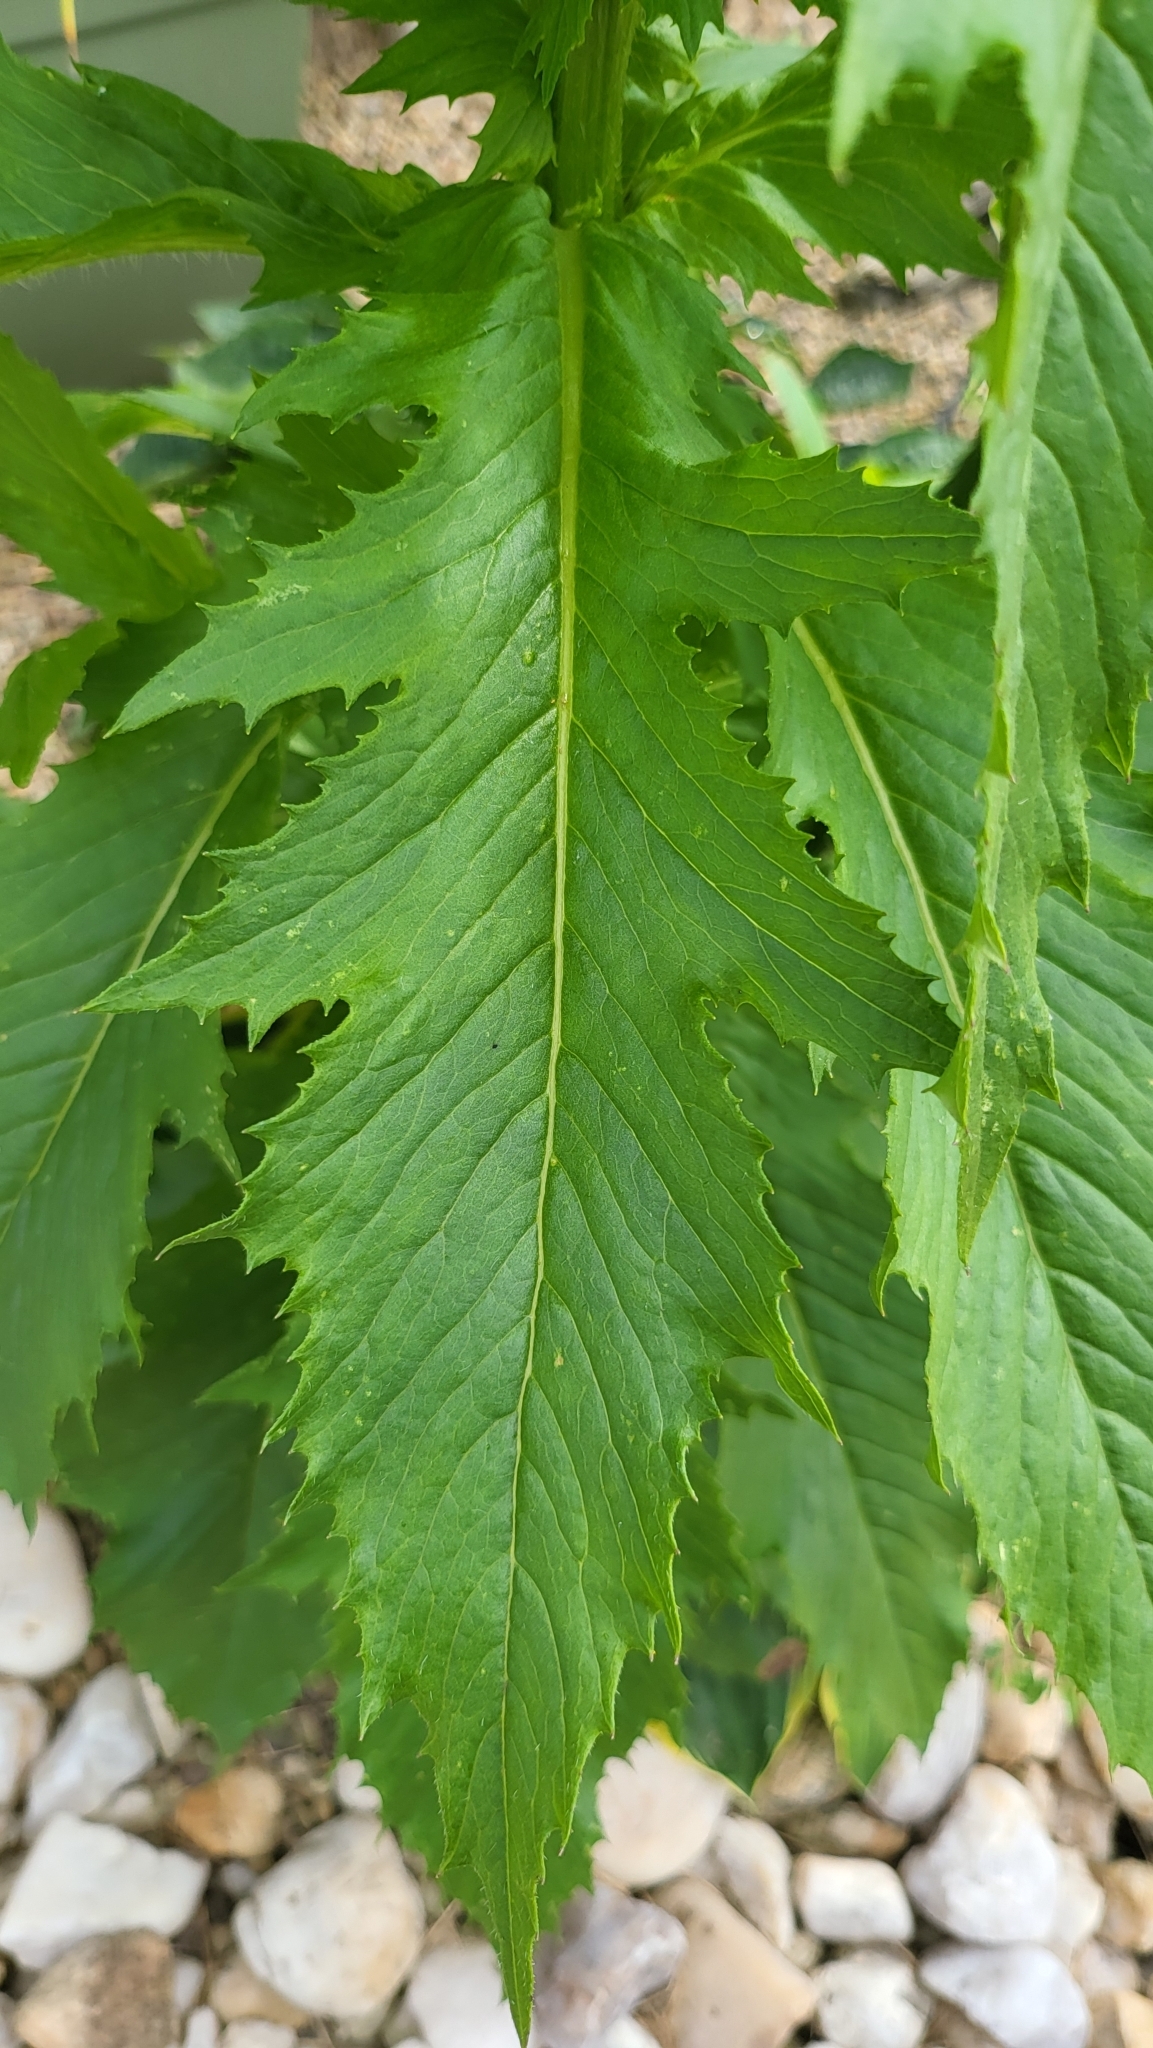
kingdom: Plantae
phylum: Tracheophyta
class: Magnoliopsida
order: Asterales
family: Asteraceae
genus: Erechtites
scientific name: Erechtites hieraciifolius
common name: American burnweed
